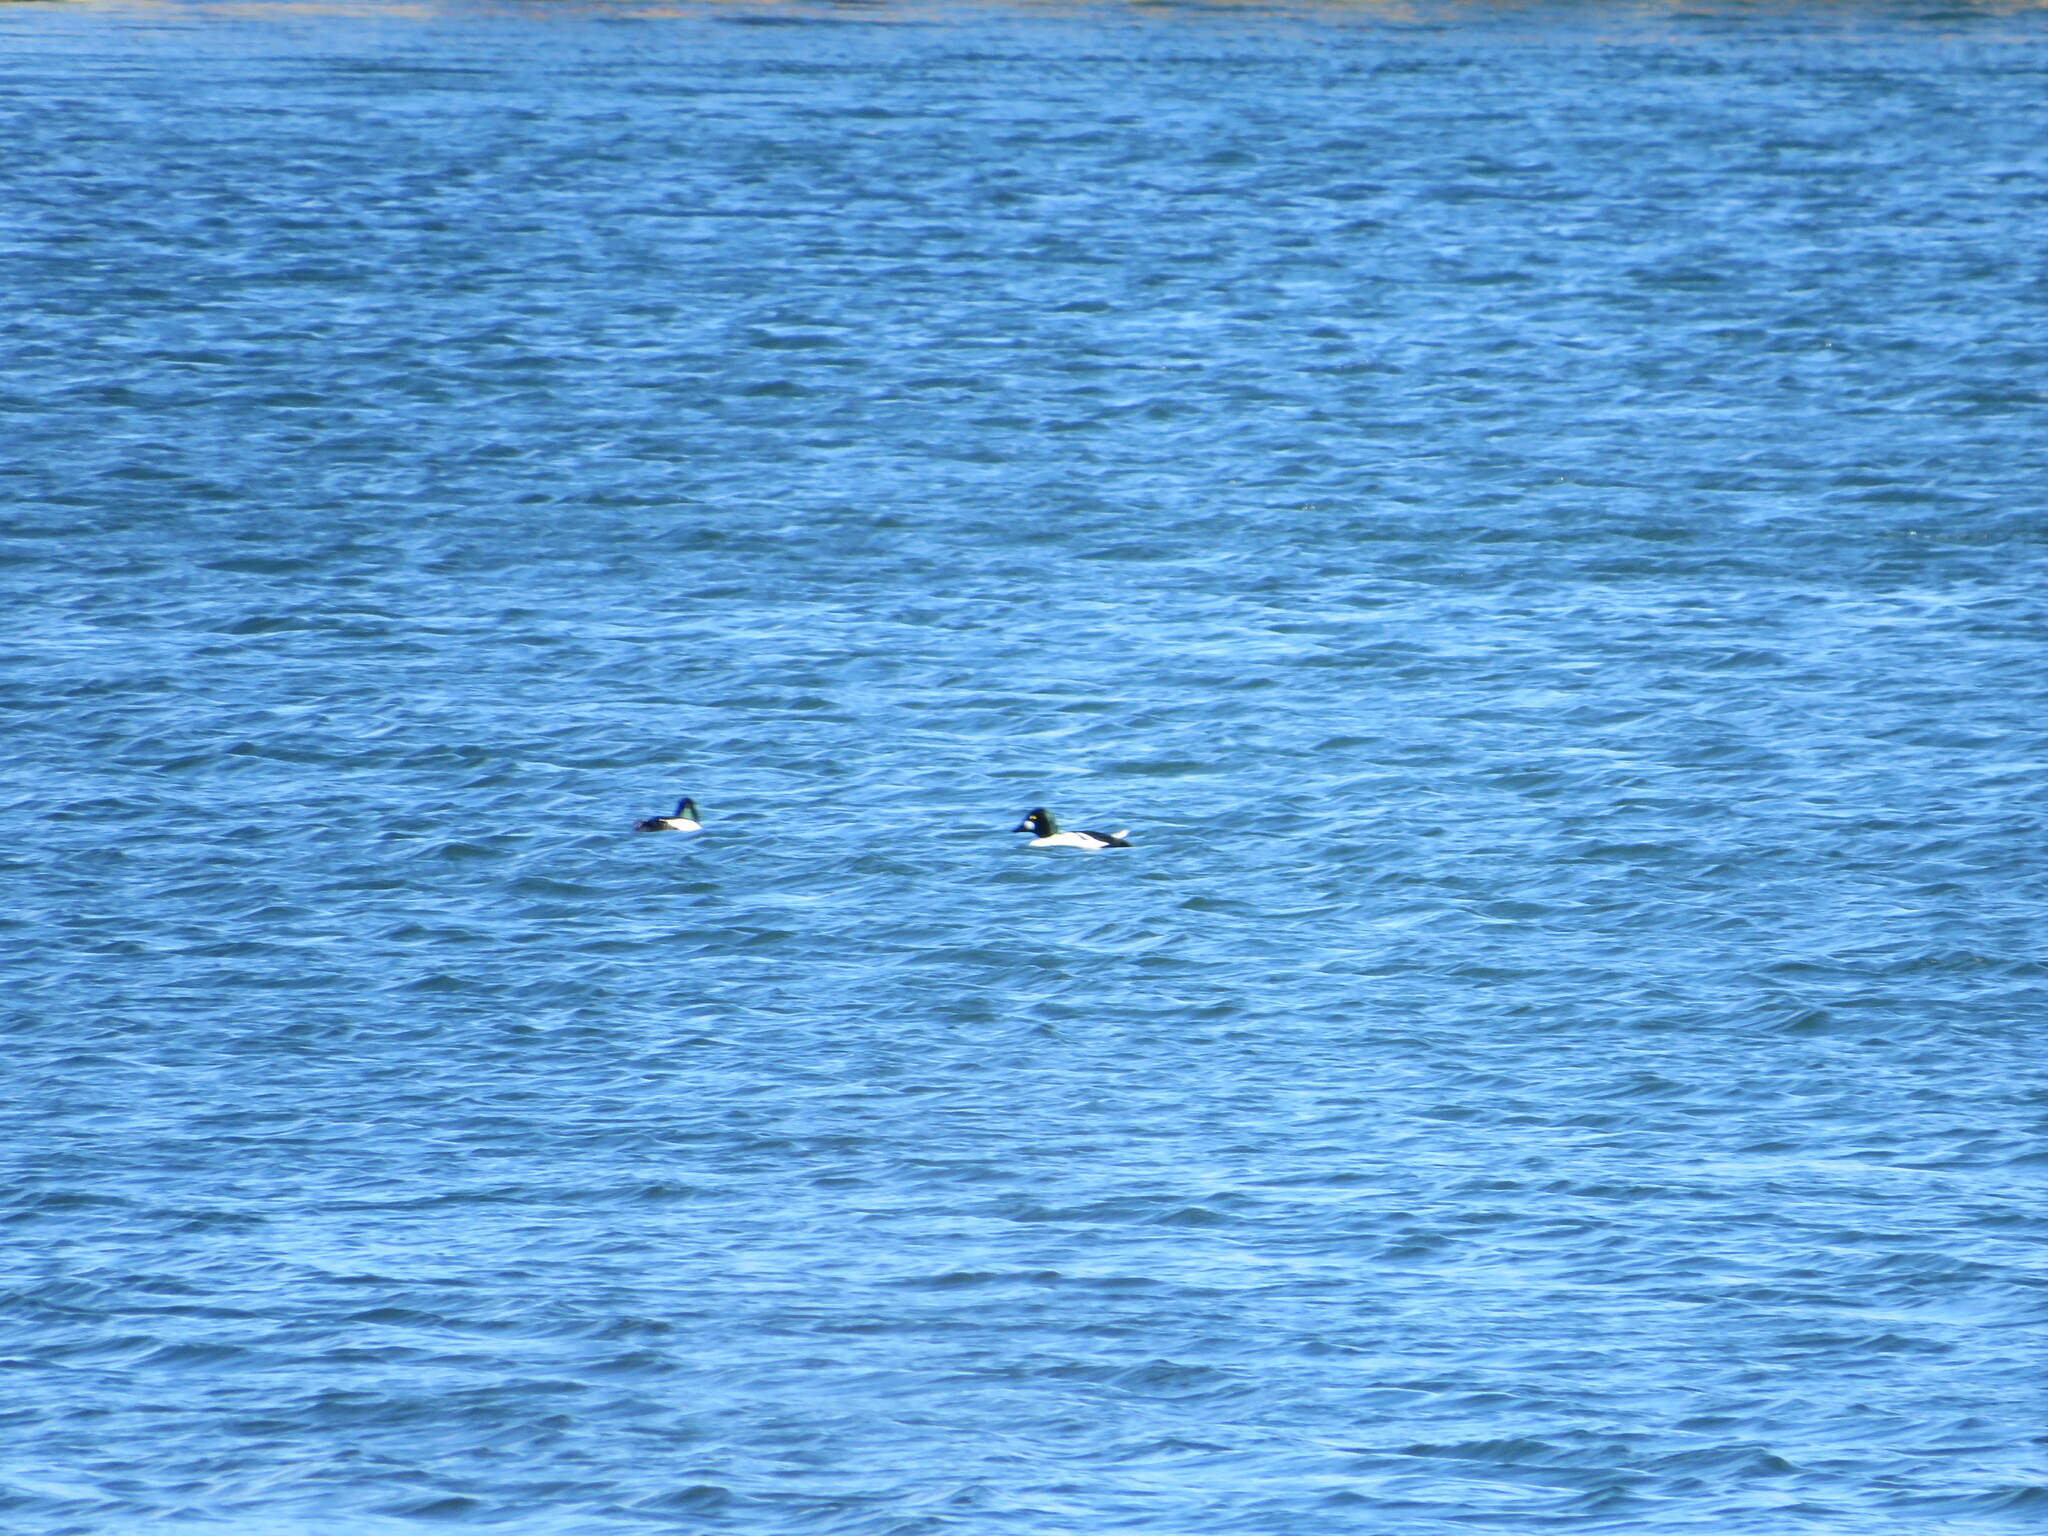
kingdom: Animalia
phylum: Chordata
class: Aves
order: Anseriformes
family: Anatidae
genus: Bucephala
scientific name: Bucephala clangula
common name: Common goldeneye
